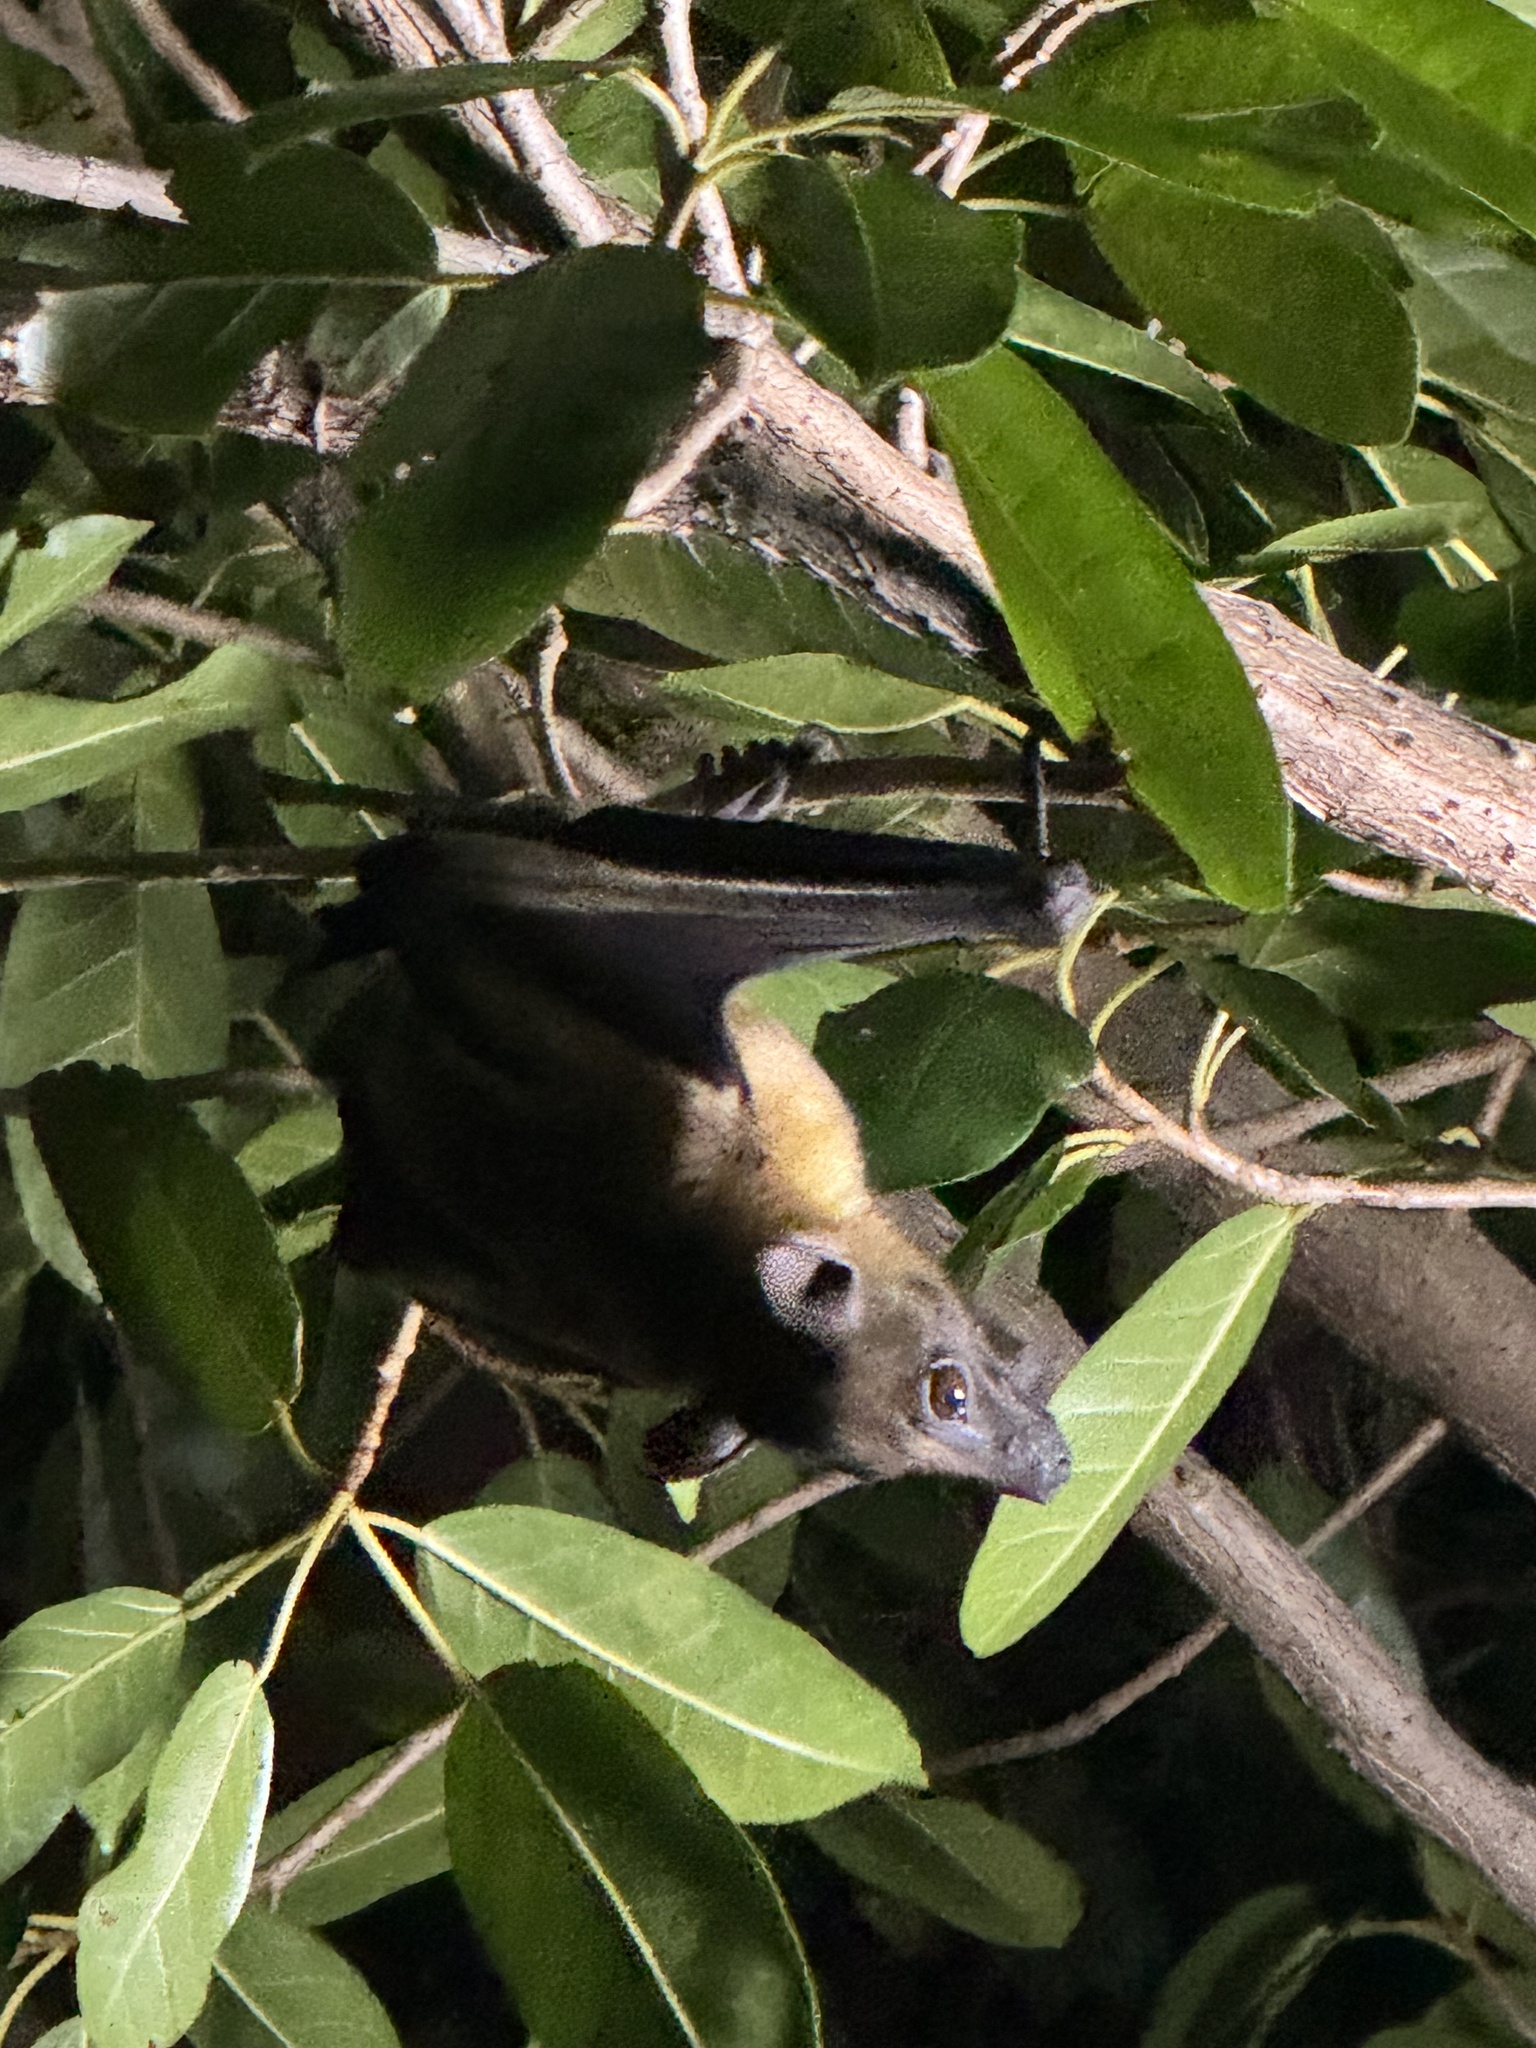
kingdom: Animalia
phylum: Chordata
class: Mammalia
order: Chiroptera
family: Pteropodidae
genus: Eidolon
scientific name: Eidolon helvum
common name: Straw-colored fruit bat
